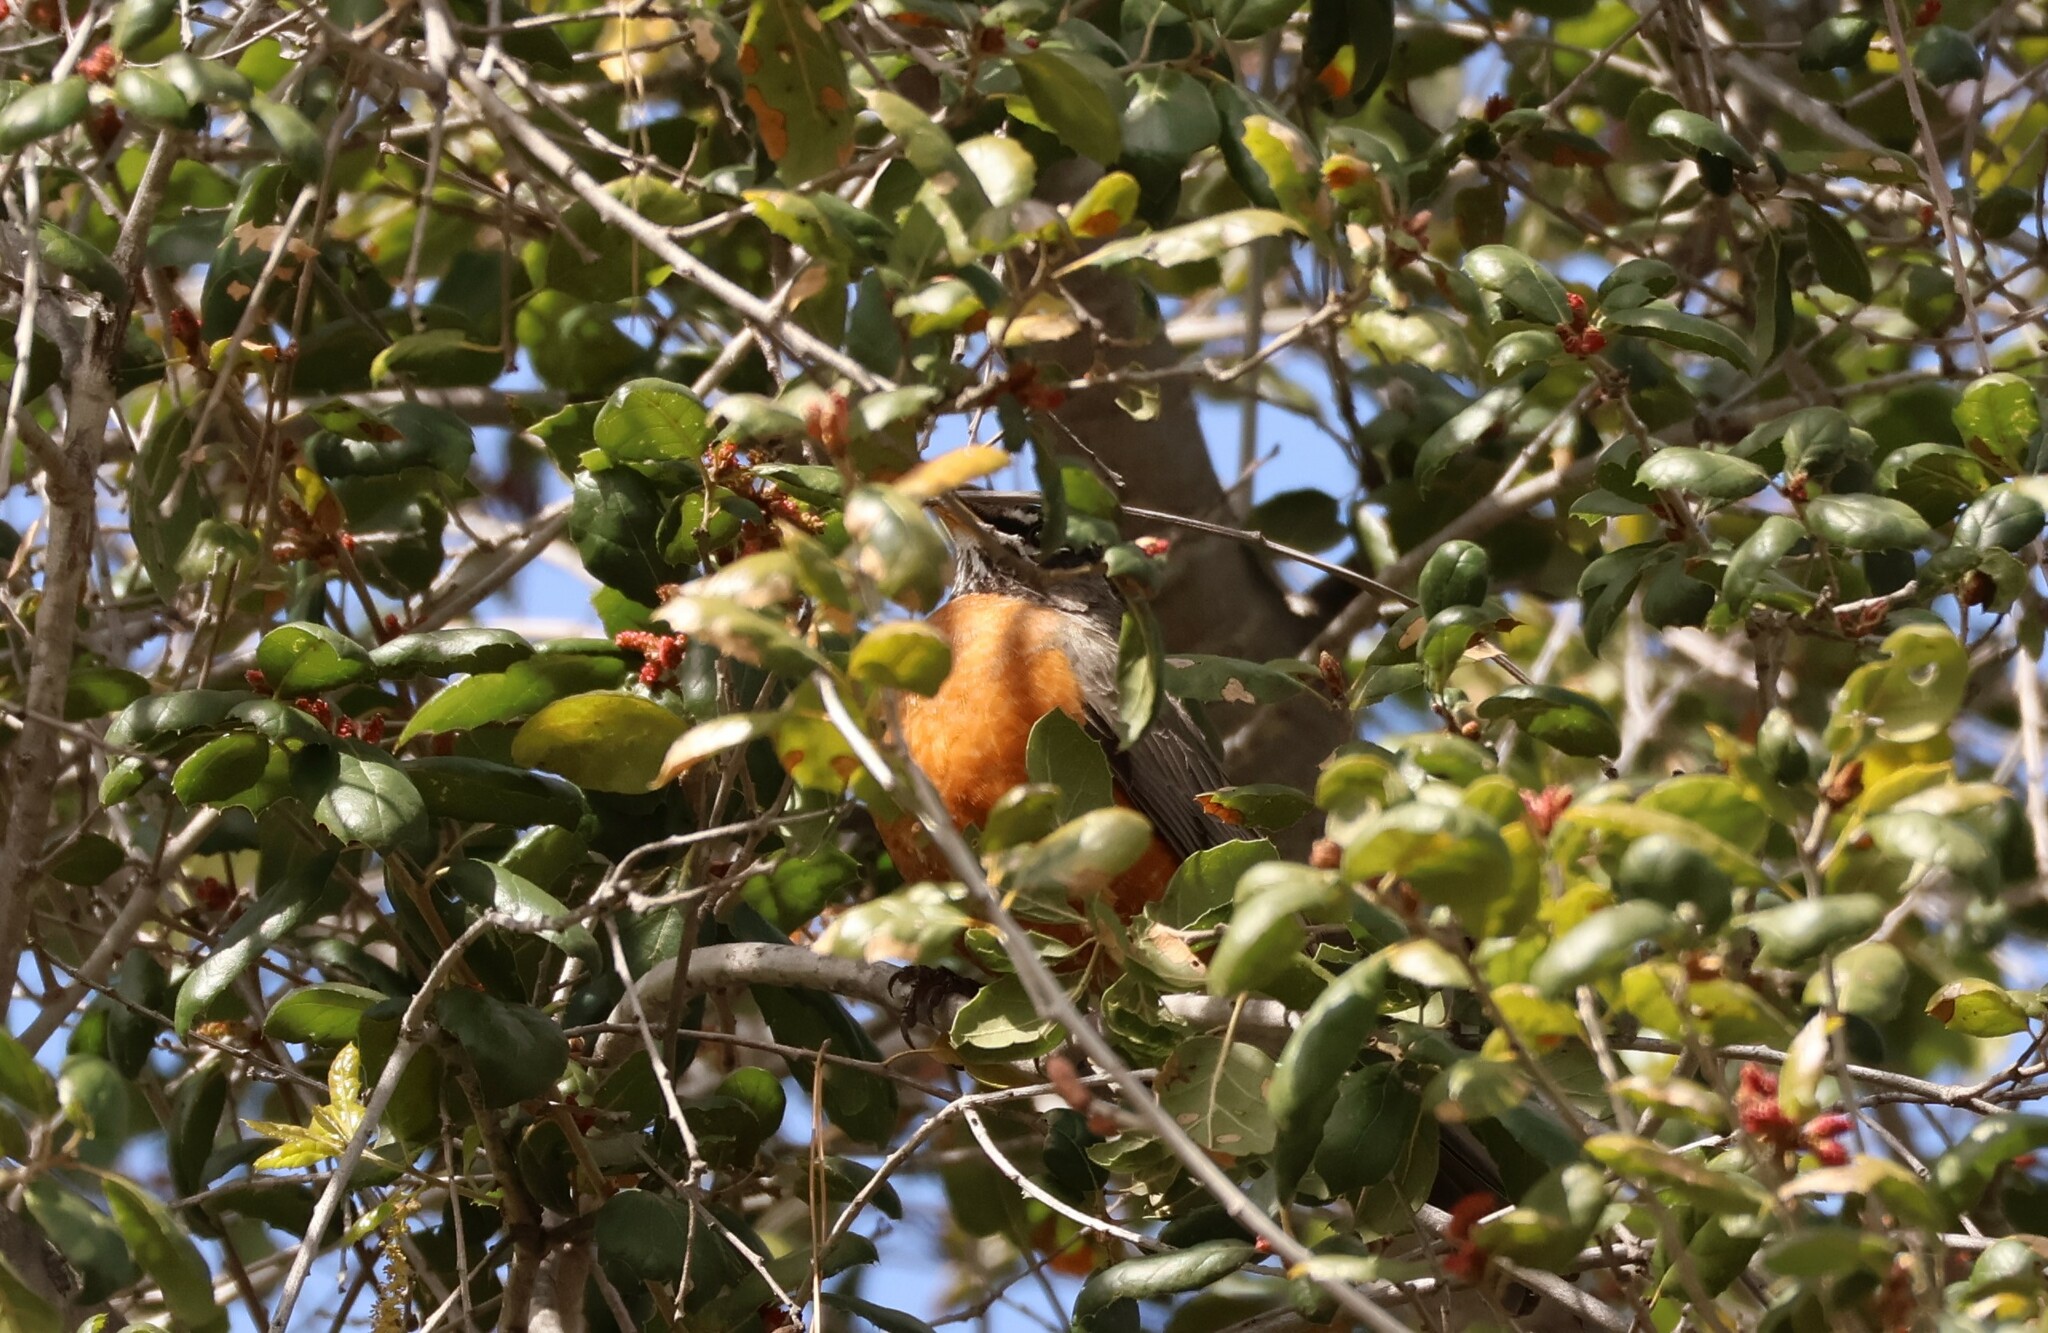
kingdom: Animalia
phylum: Chordata
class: Aves
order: Passeriformes
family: Turdidae
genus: Turdus
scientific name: Turdus migratorius
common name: American robin
